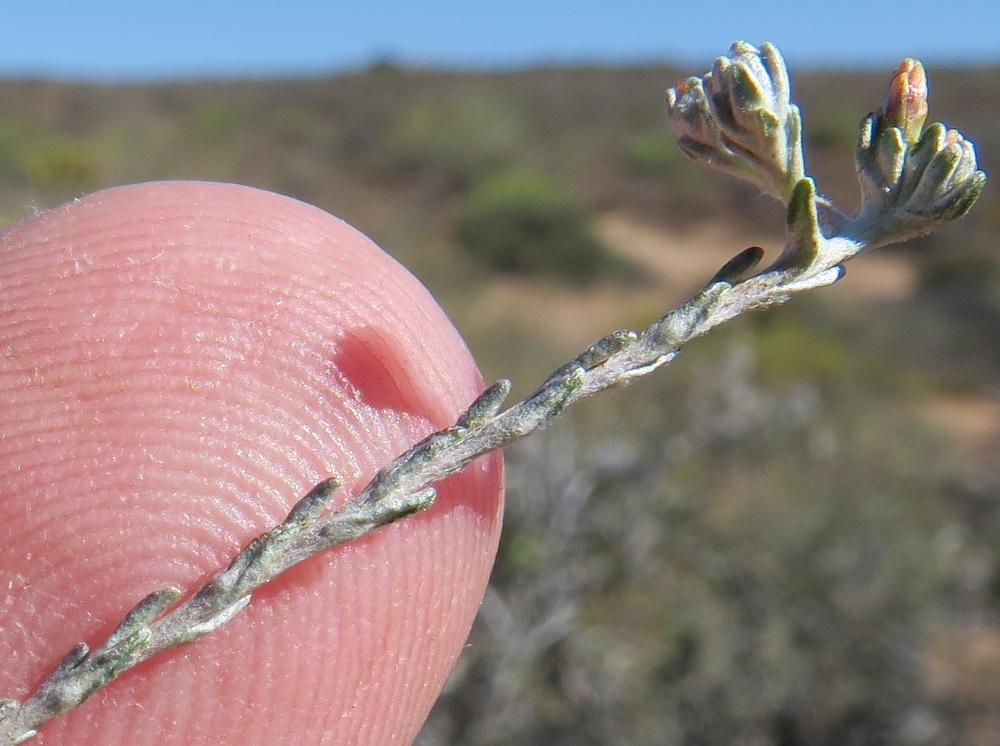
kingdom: Plantae
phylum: Tracheophyta
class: Magnoliopsida
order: Asterales
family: Asteraceae
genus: Helichrysum
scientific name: Helichrysum asperum
